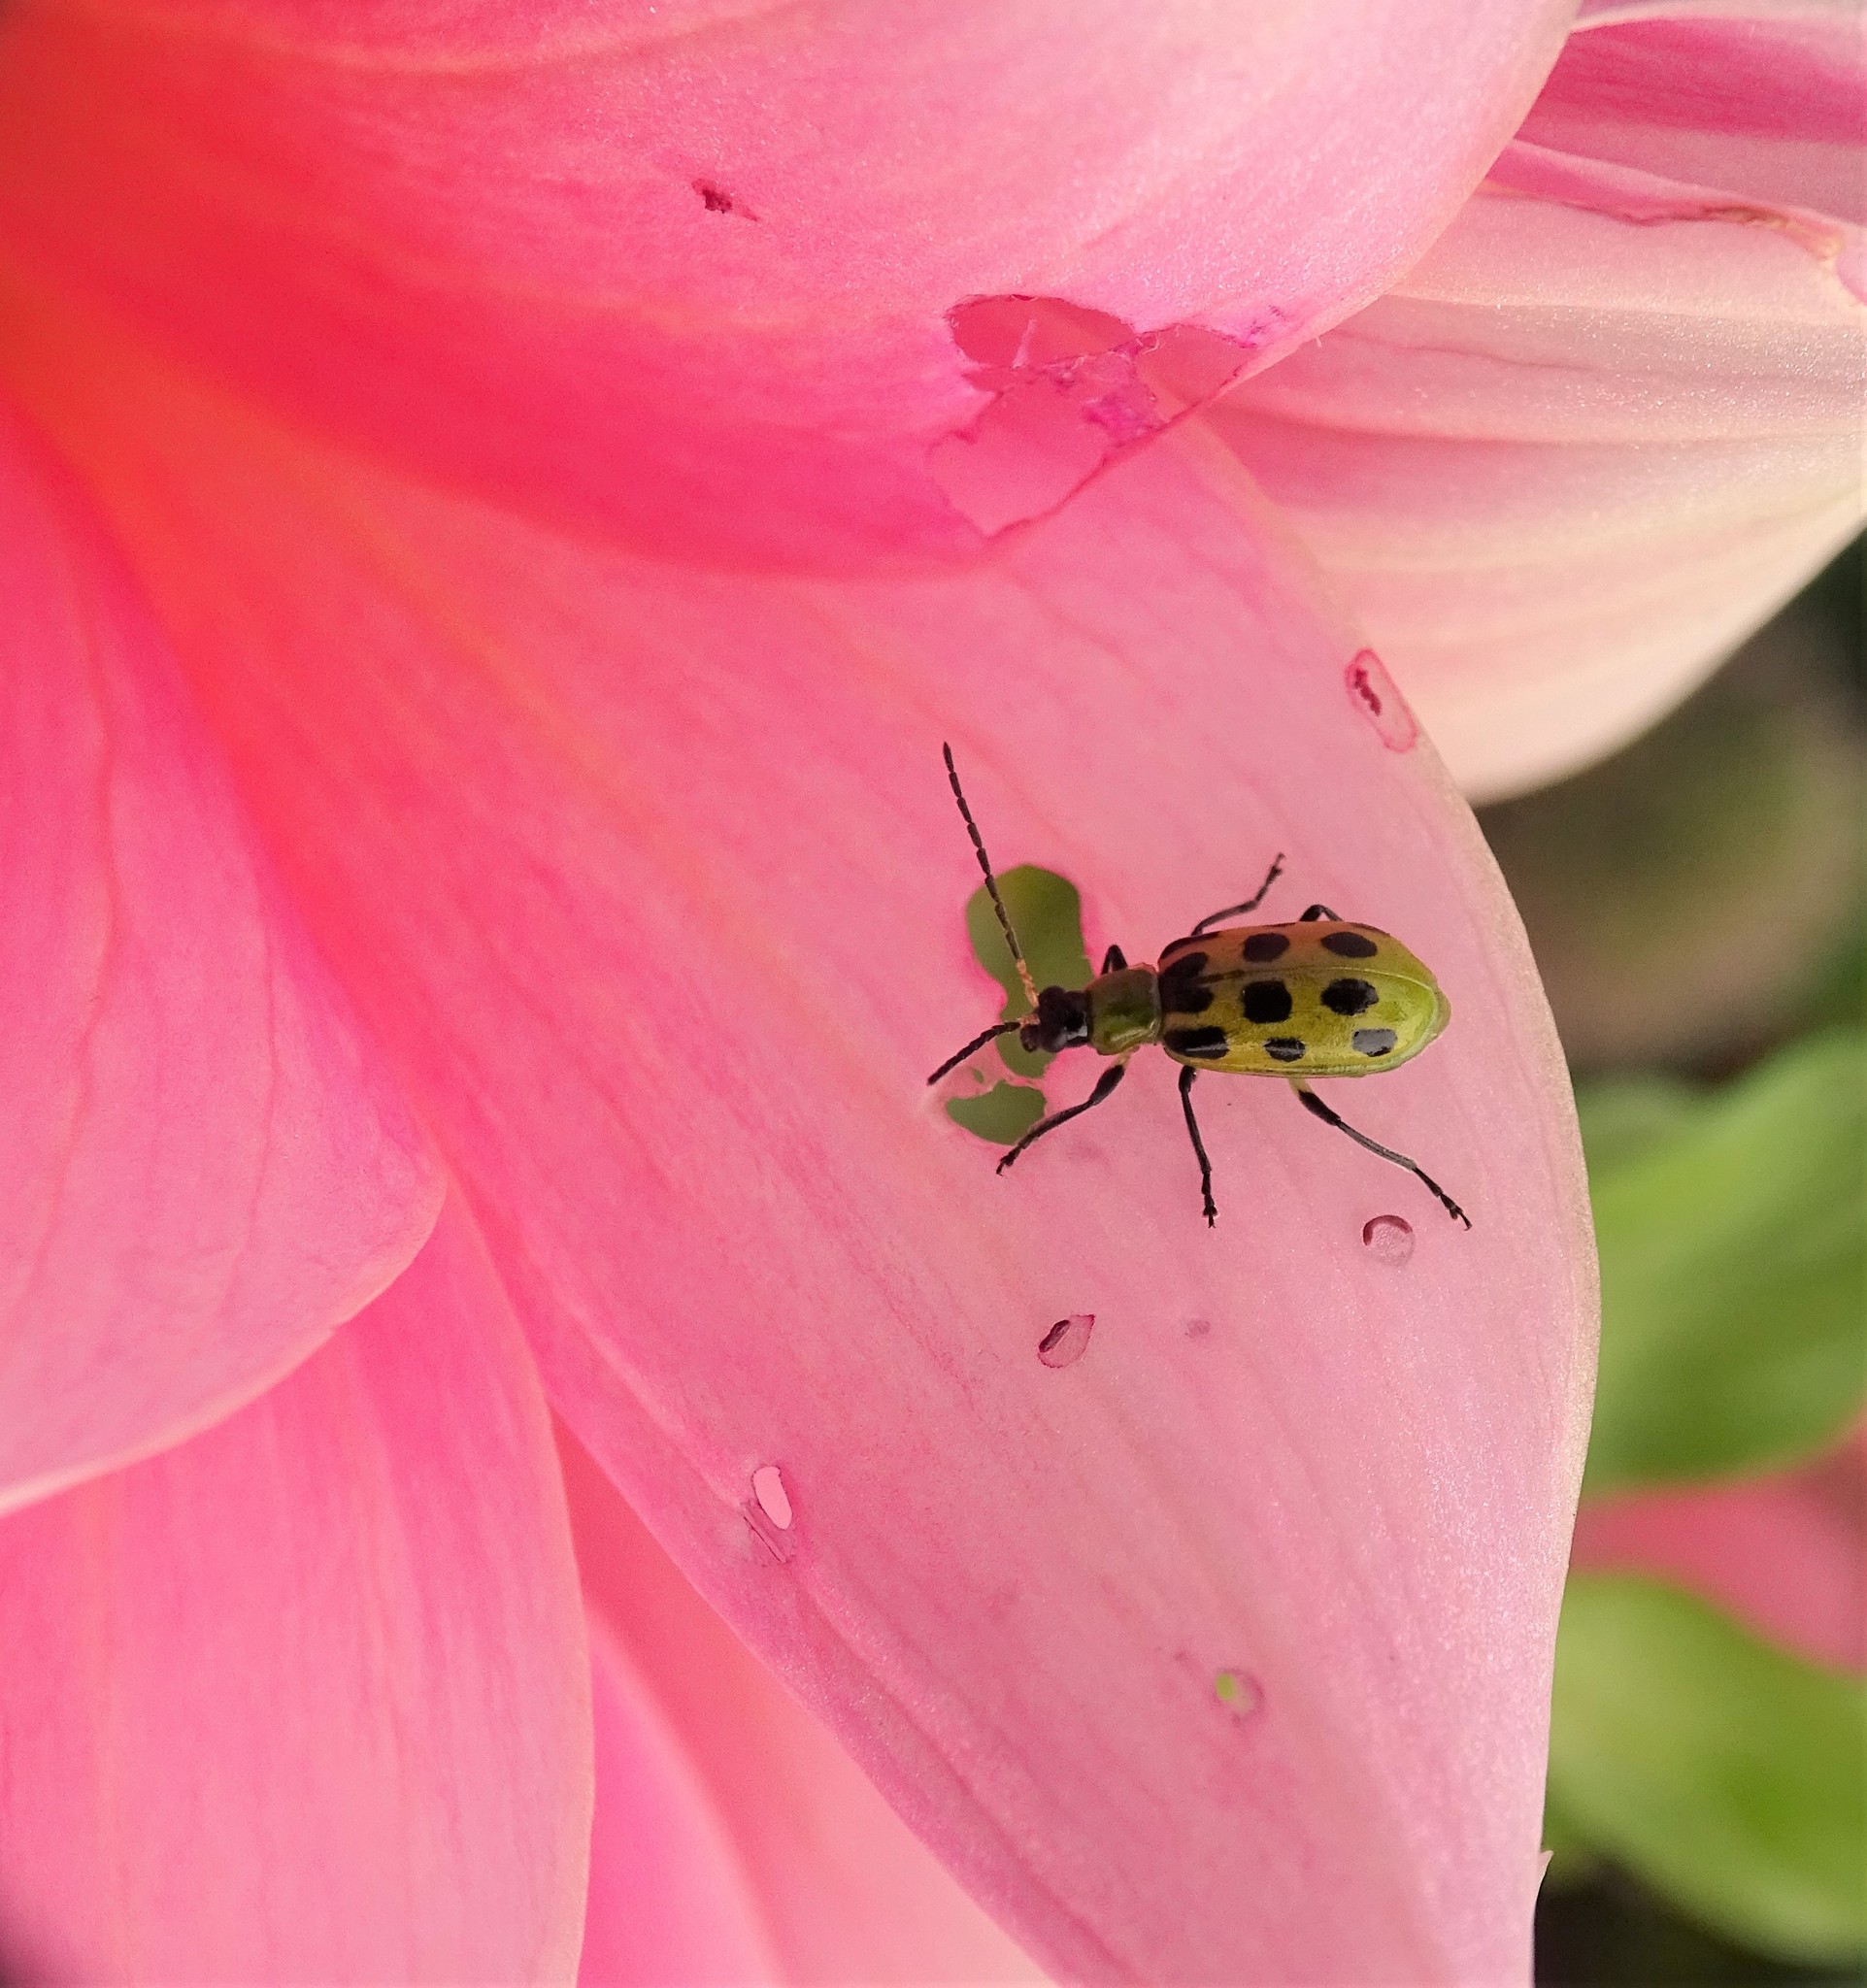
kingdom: Animalia
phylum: Arthropoda
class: Insecta
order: Coleoptera
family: Chrysomelidae
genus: Diabrotica
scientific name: Diabrotica undecimpunctata
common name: Spotted cucumber beetle
